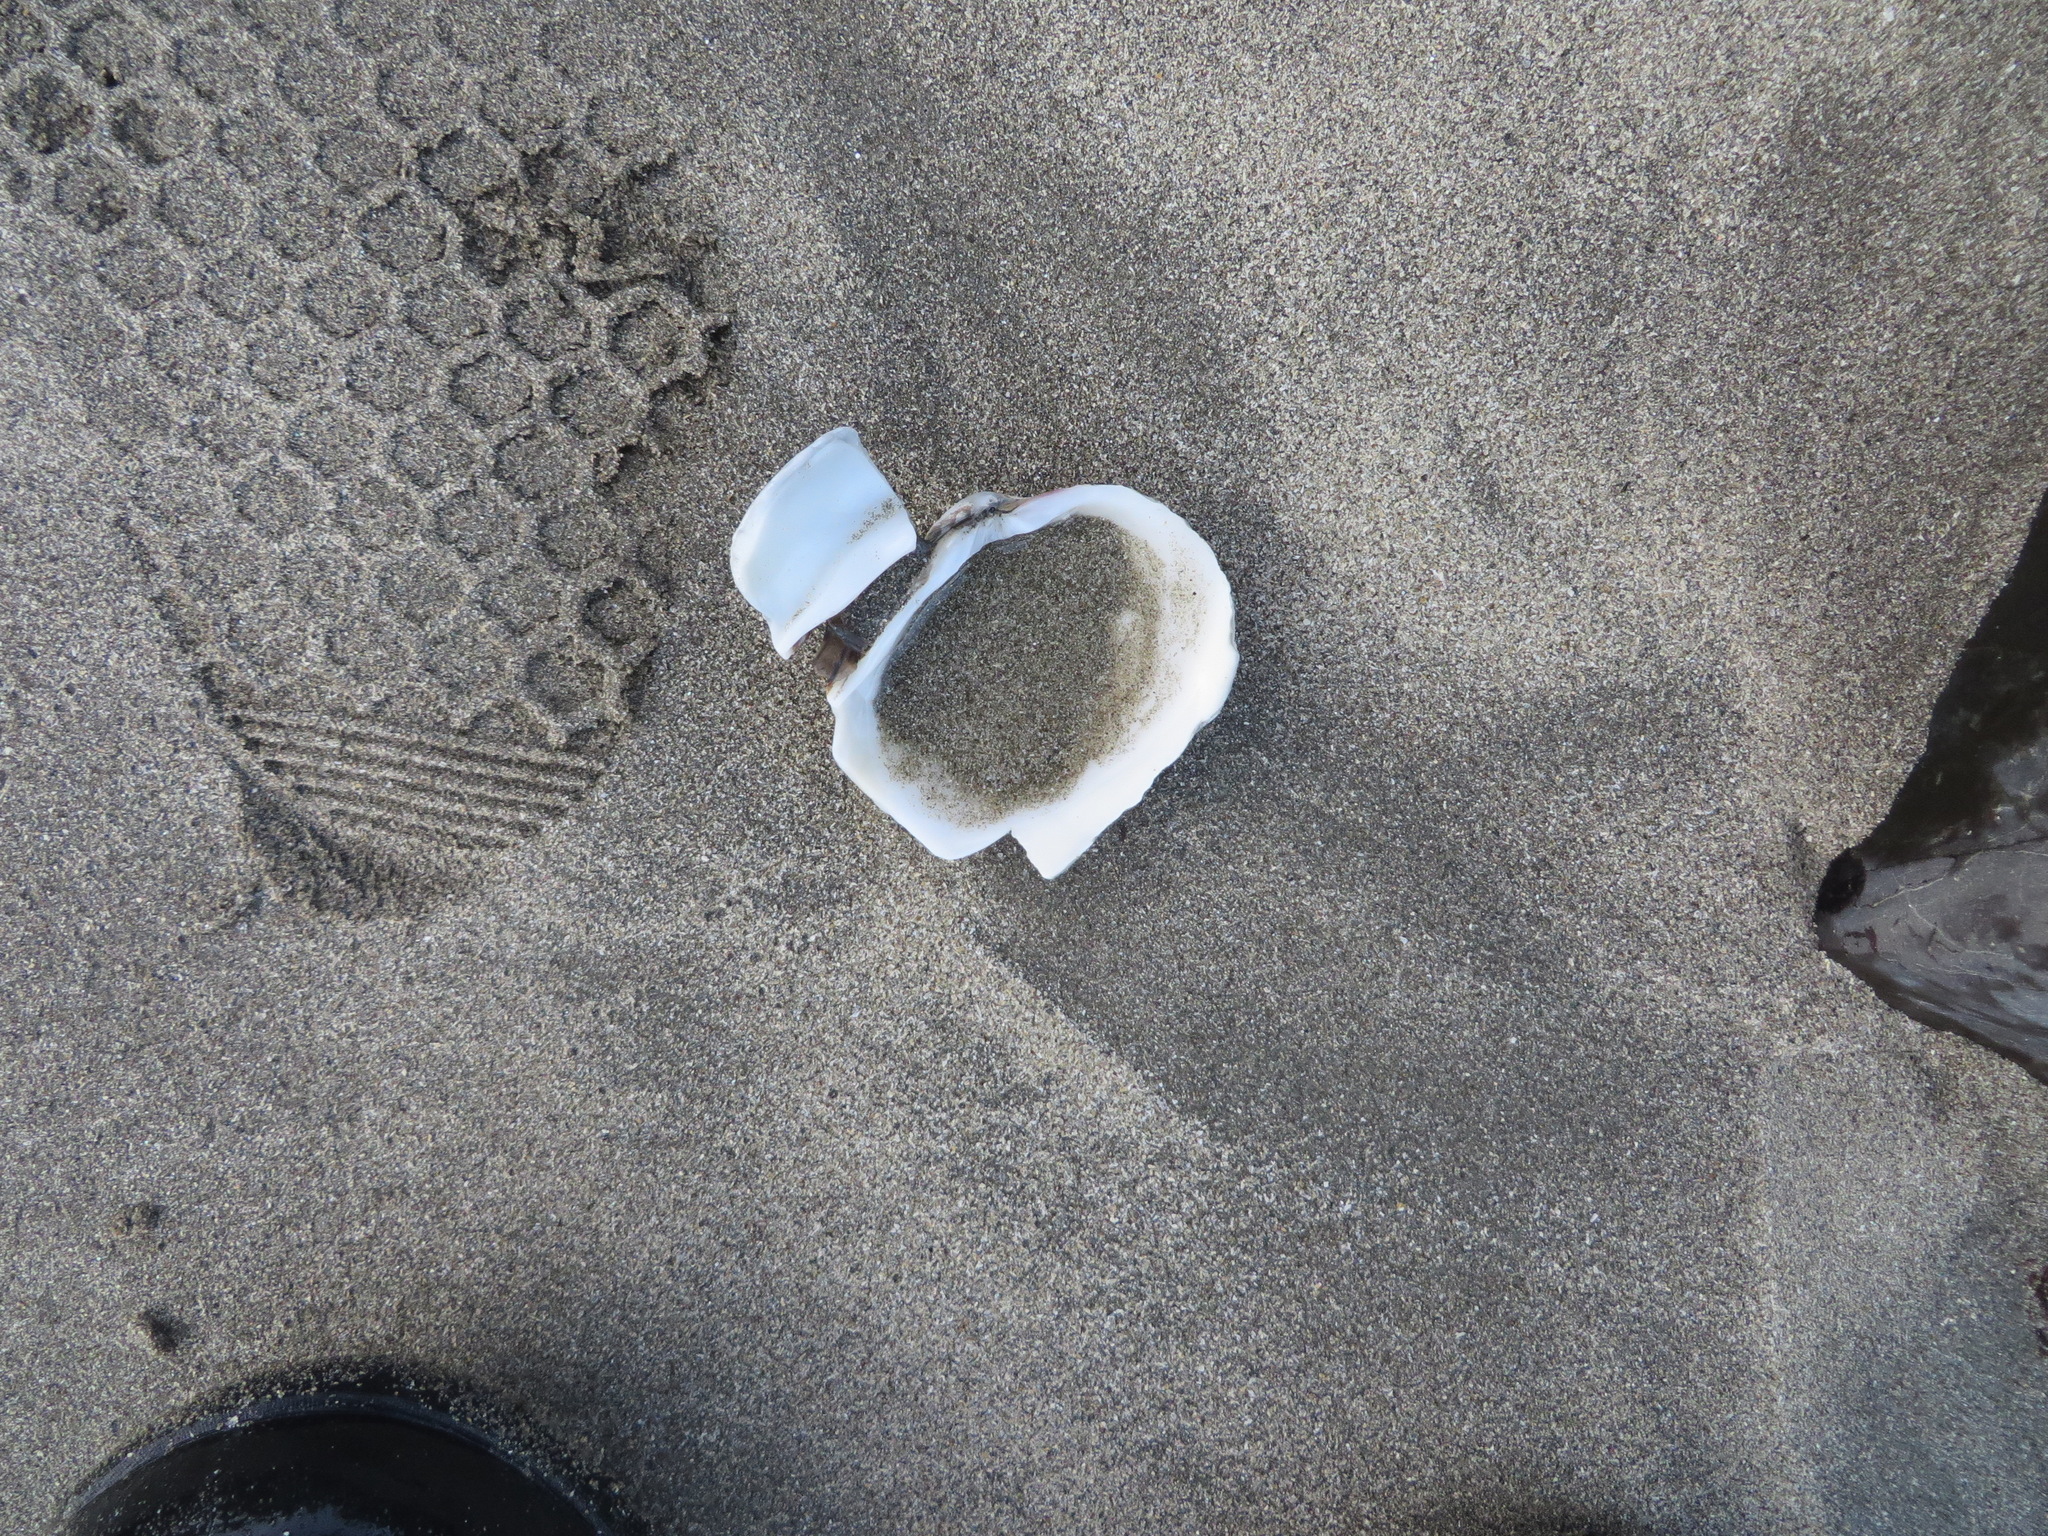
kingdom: Animalia
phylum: Mollusca
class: Bivalvia
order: Venerida
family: Veneridae
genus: Saxidomus
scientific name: Saxidomus nuttalli
